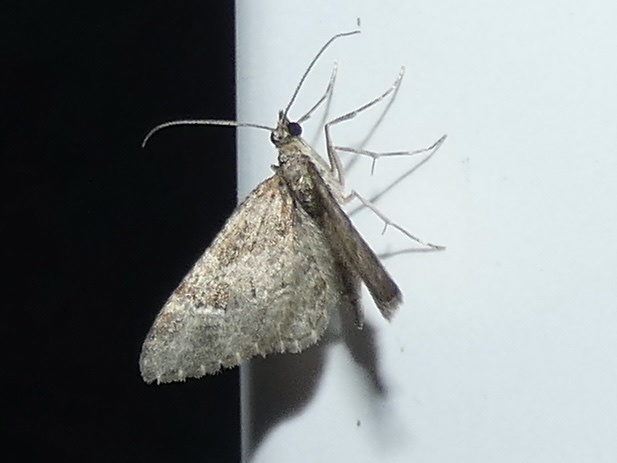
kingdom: Animalia
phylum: Arthropoda
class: Insecta
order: Lepidoptera
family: Geometridae
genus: Gymnoscelis
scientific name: Gymnoscelis rufifasciata
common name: Double-striped pug
